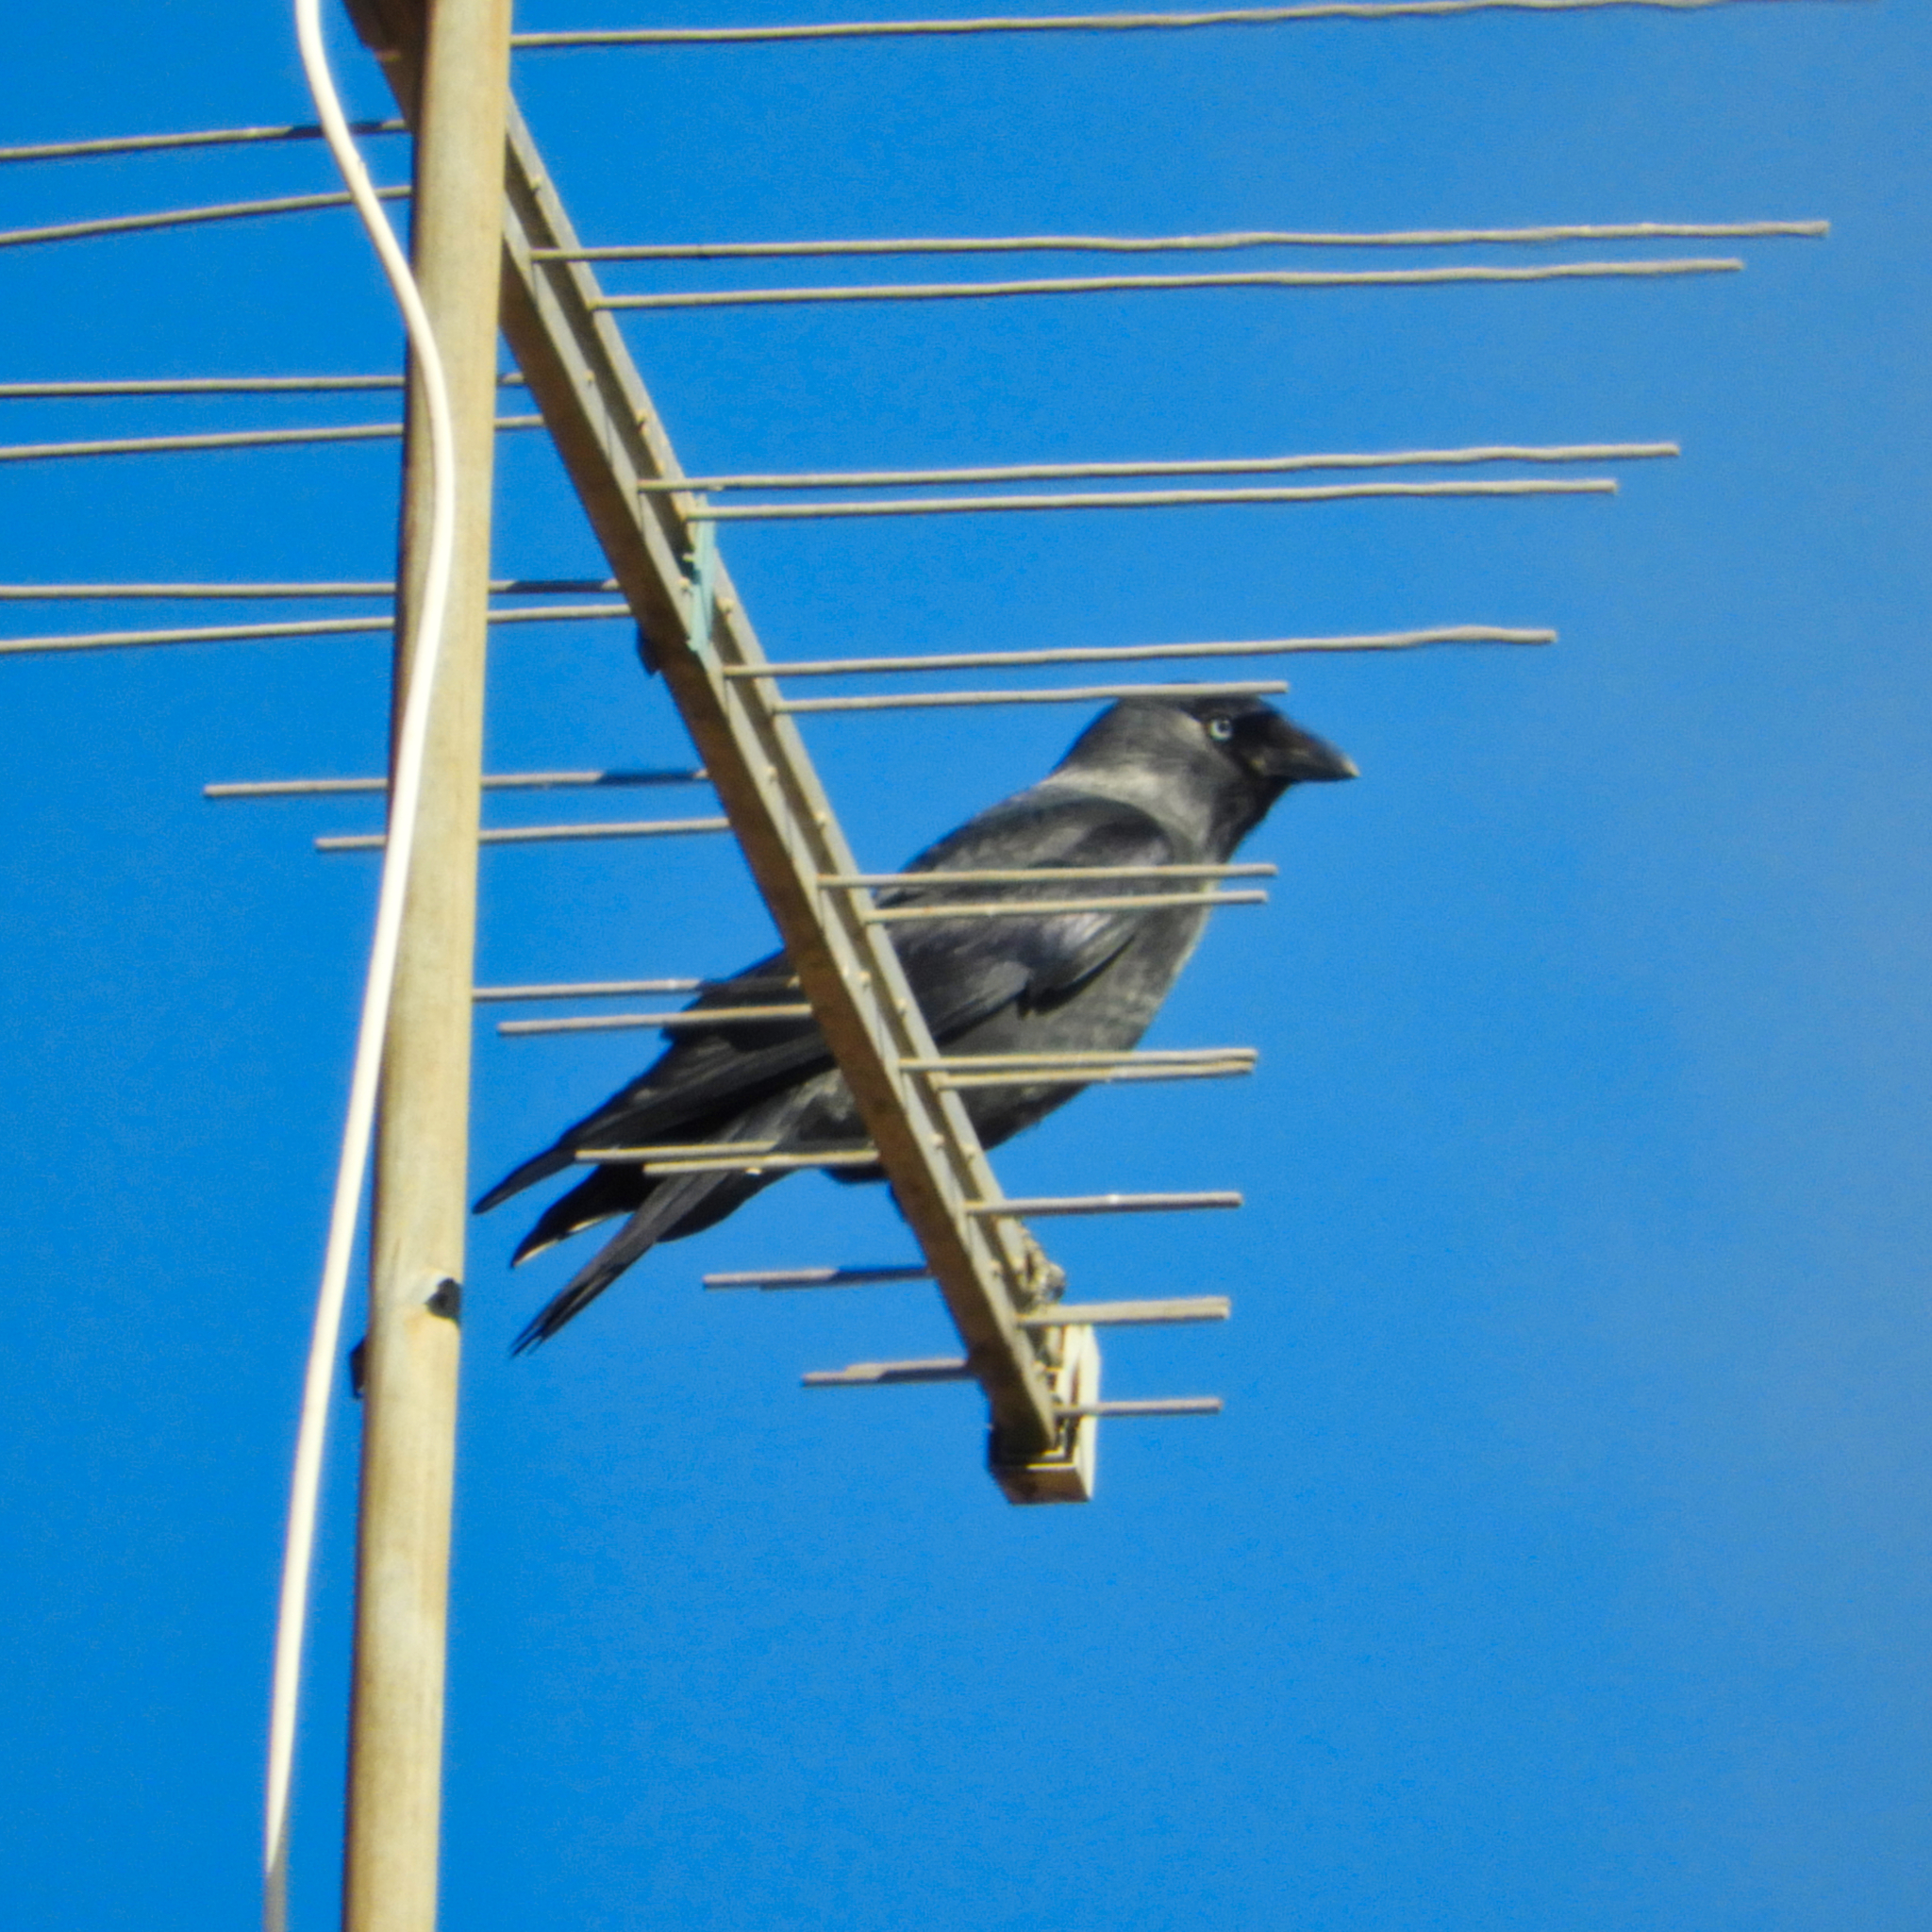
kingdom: Animalia
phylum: Chordata
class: Aves
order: Passeriformes
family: Corvidae
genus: Coloeus
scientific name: Coloeus monedula
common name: Western jackdaw
